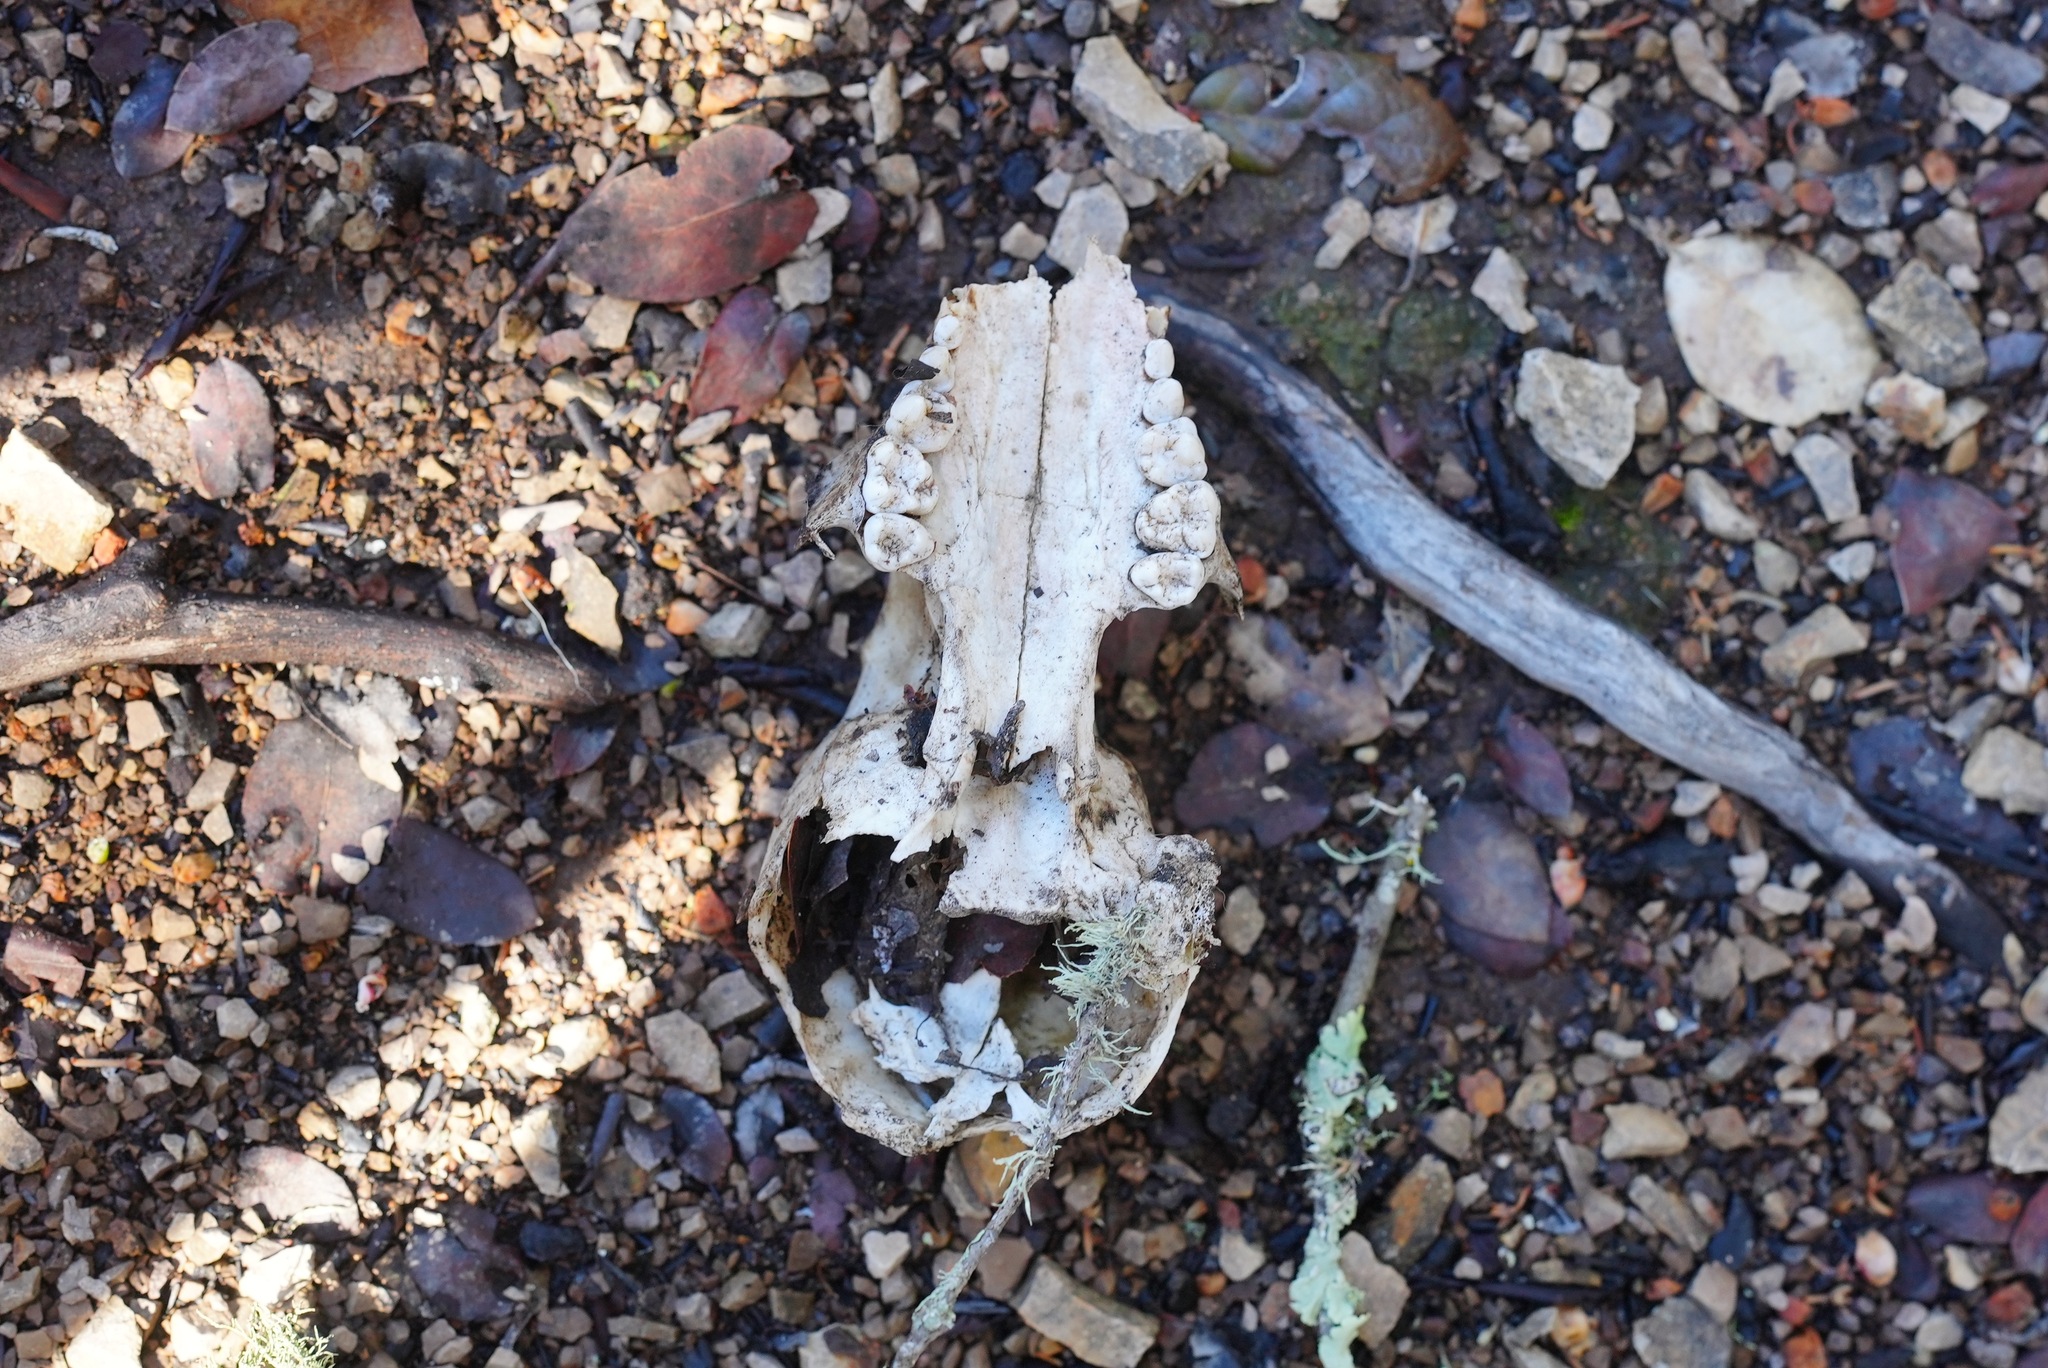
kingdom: Animalia
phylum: Chordata
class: Mammalia
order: Carnivora
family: Procyonidae
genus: Procyon
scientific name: Procyon lotor
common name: Raccoon
